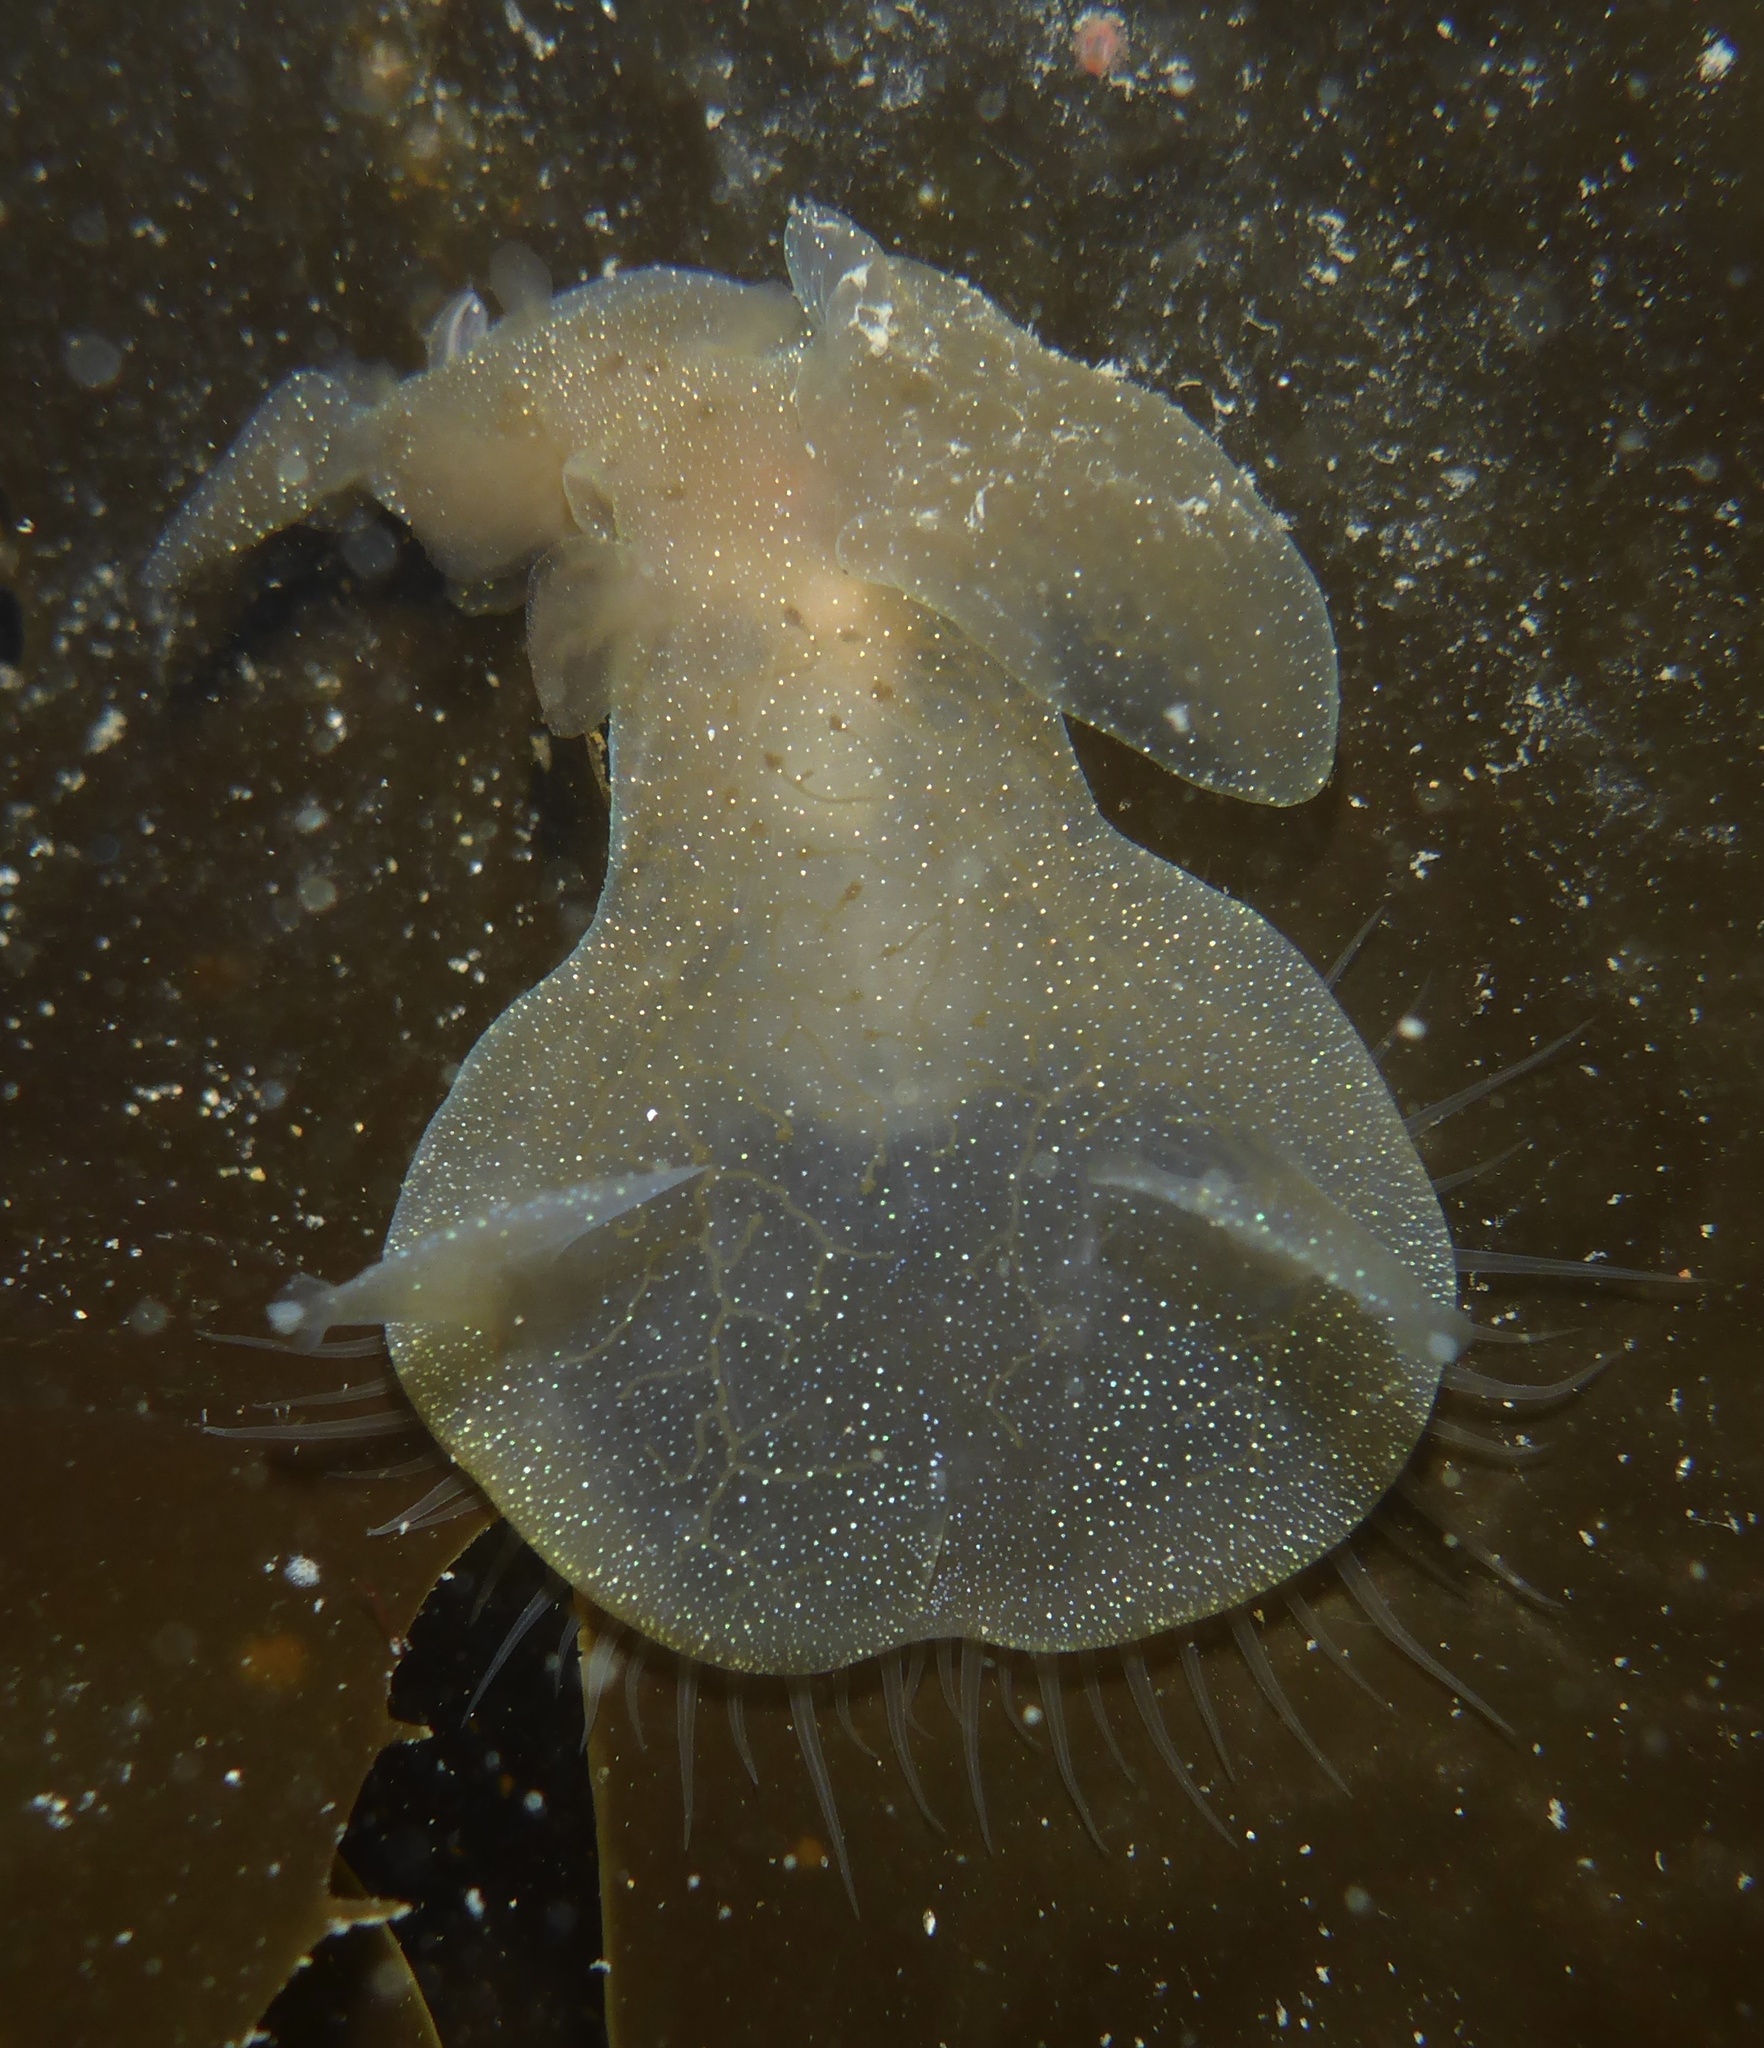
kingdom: Animalia
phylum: Mollusca
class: Gastropoda
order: Nudibranchia
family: Tethydidae
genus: Melibe
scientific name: Melibe leonina
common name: Lion nudibranch
